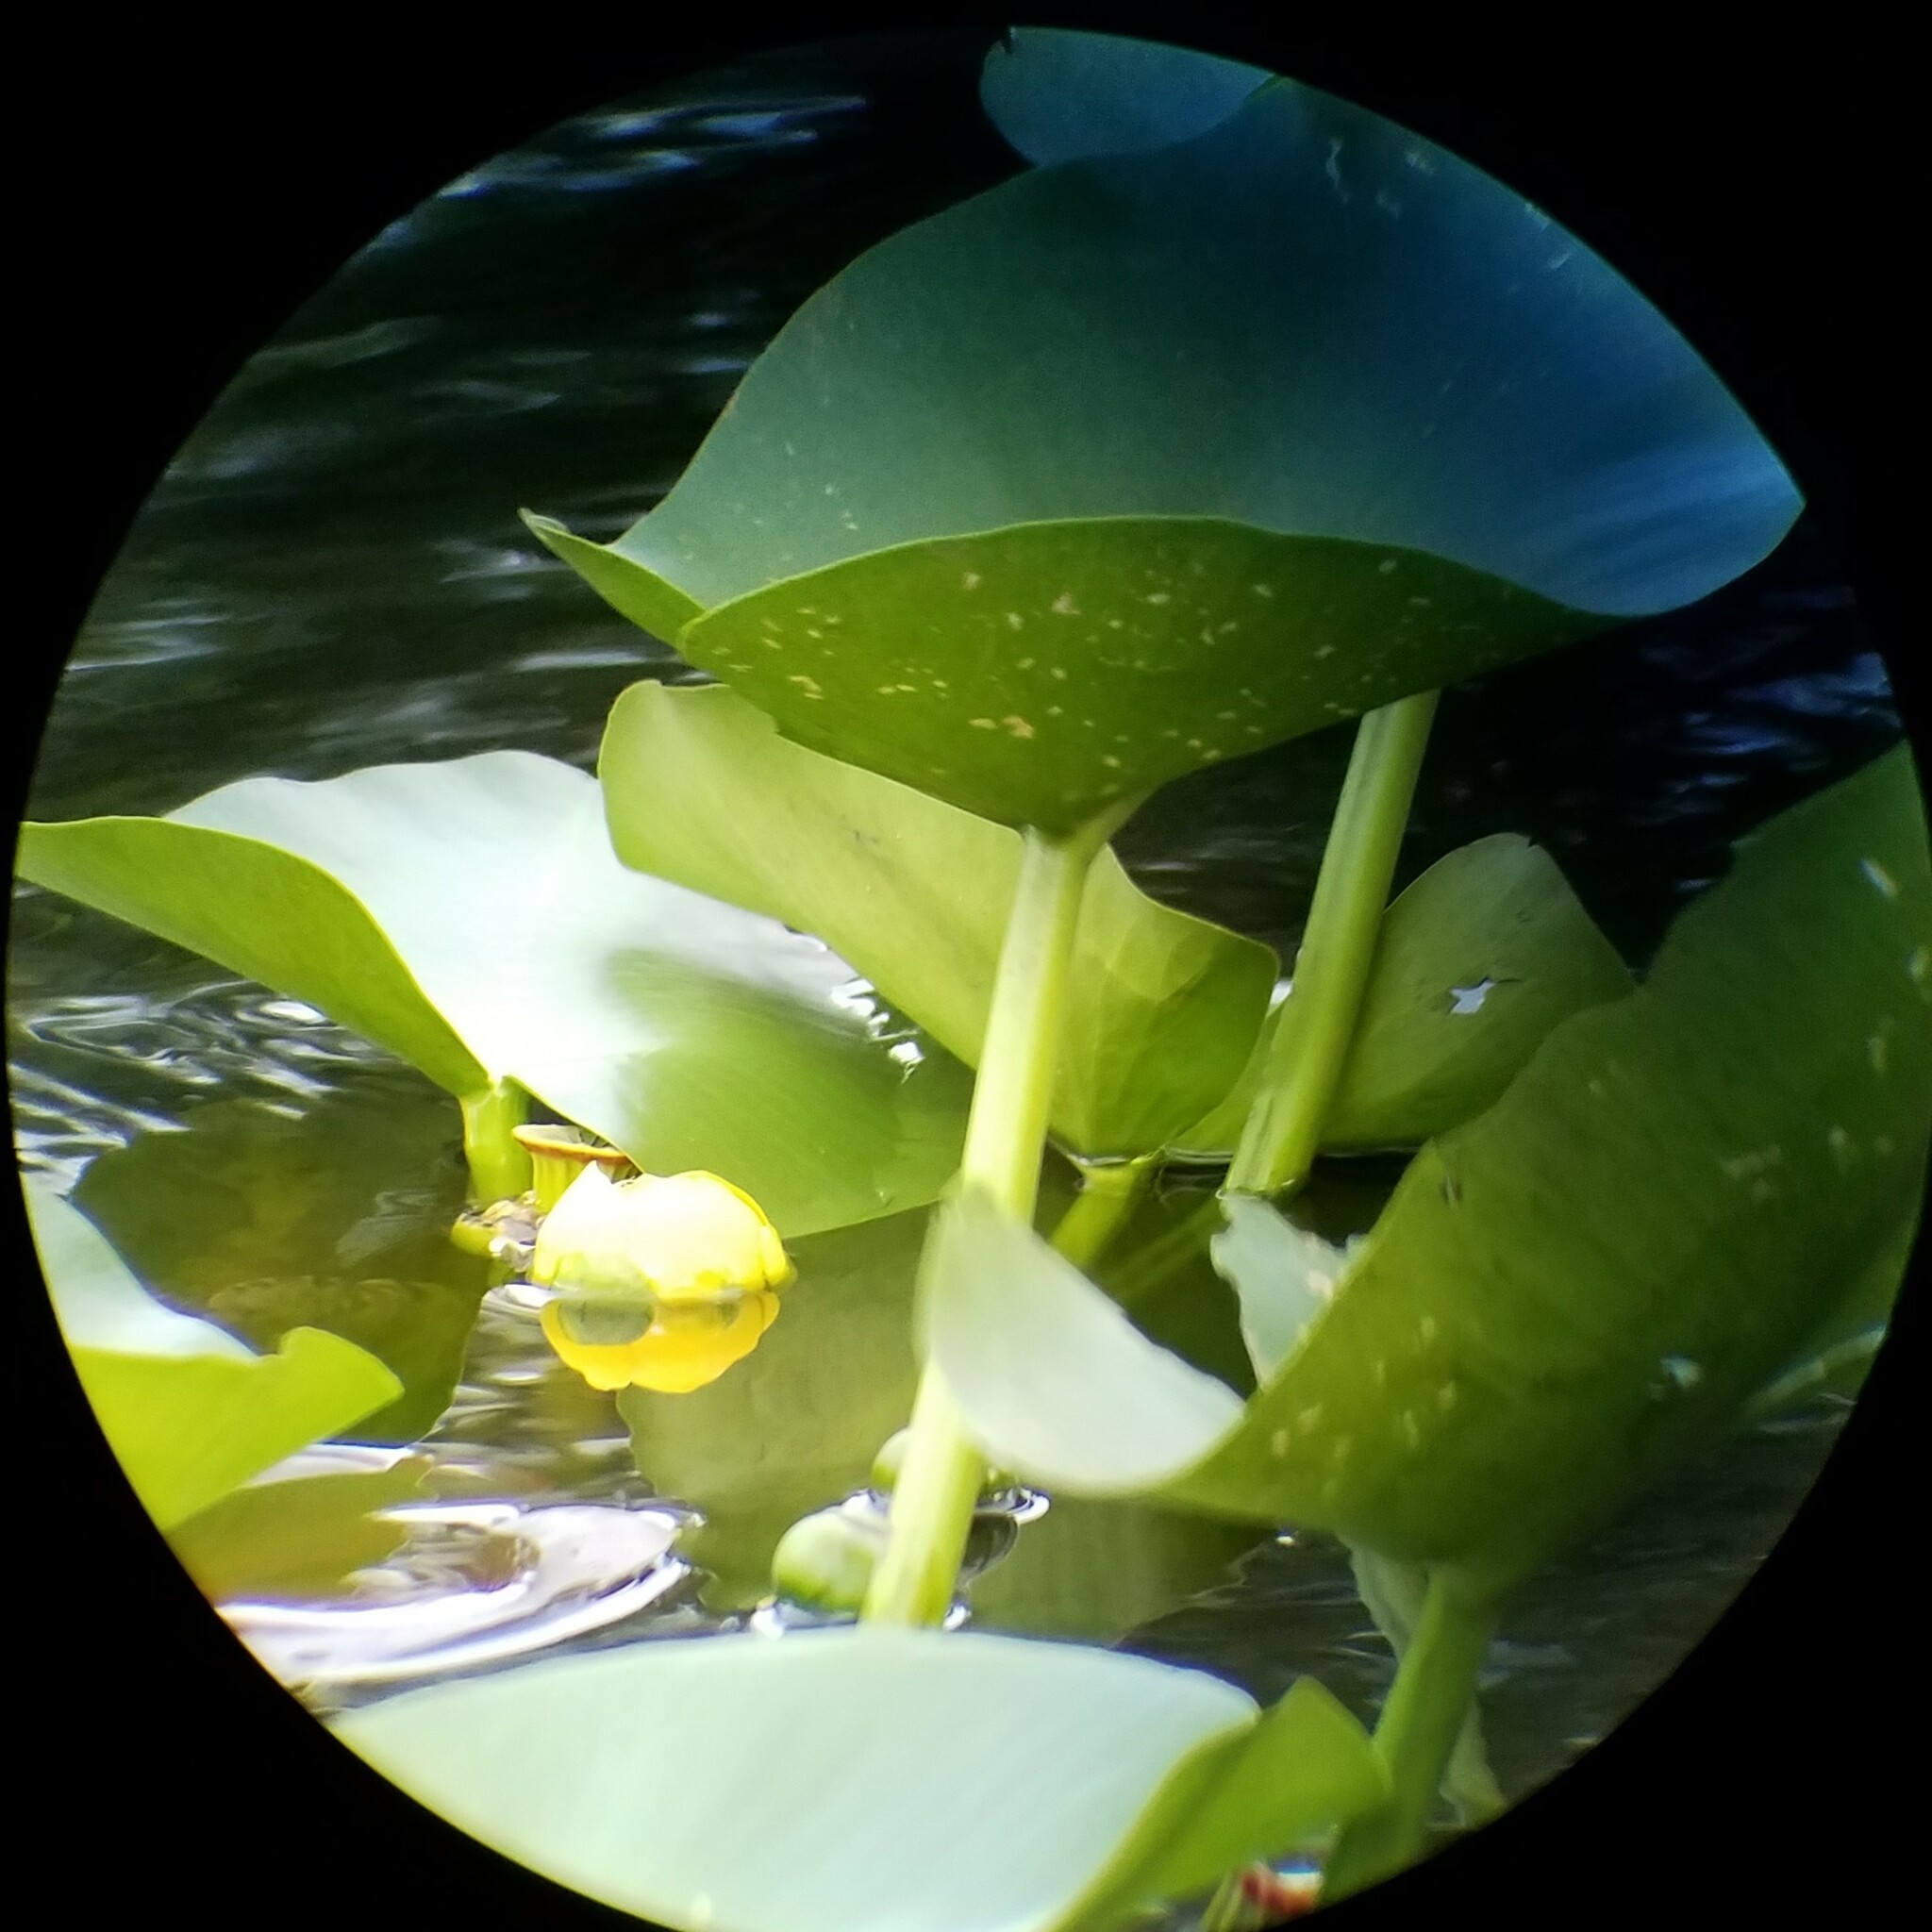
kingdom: Plantae
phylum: Tracheophyta
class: Magnoliopsida
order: Nymphaeales
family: Nymphaeaceae
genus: Nuphar
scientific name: Nuphar advena
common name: Spatter-dock
